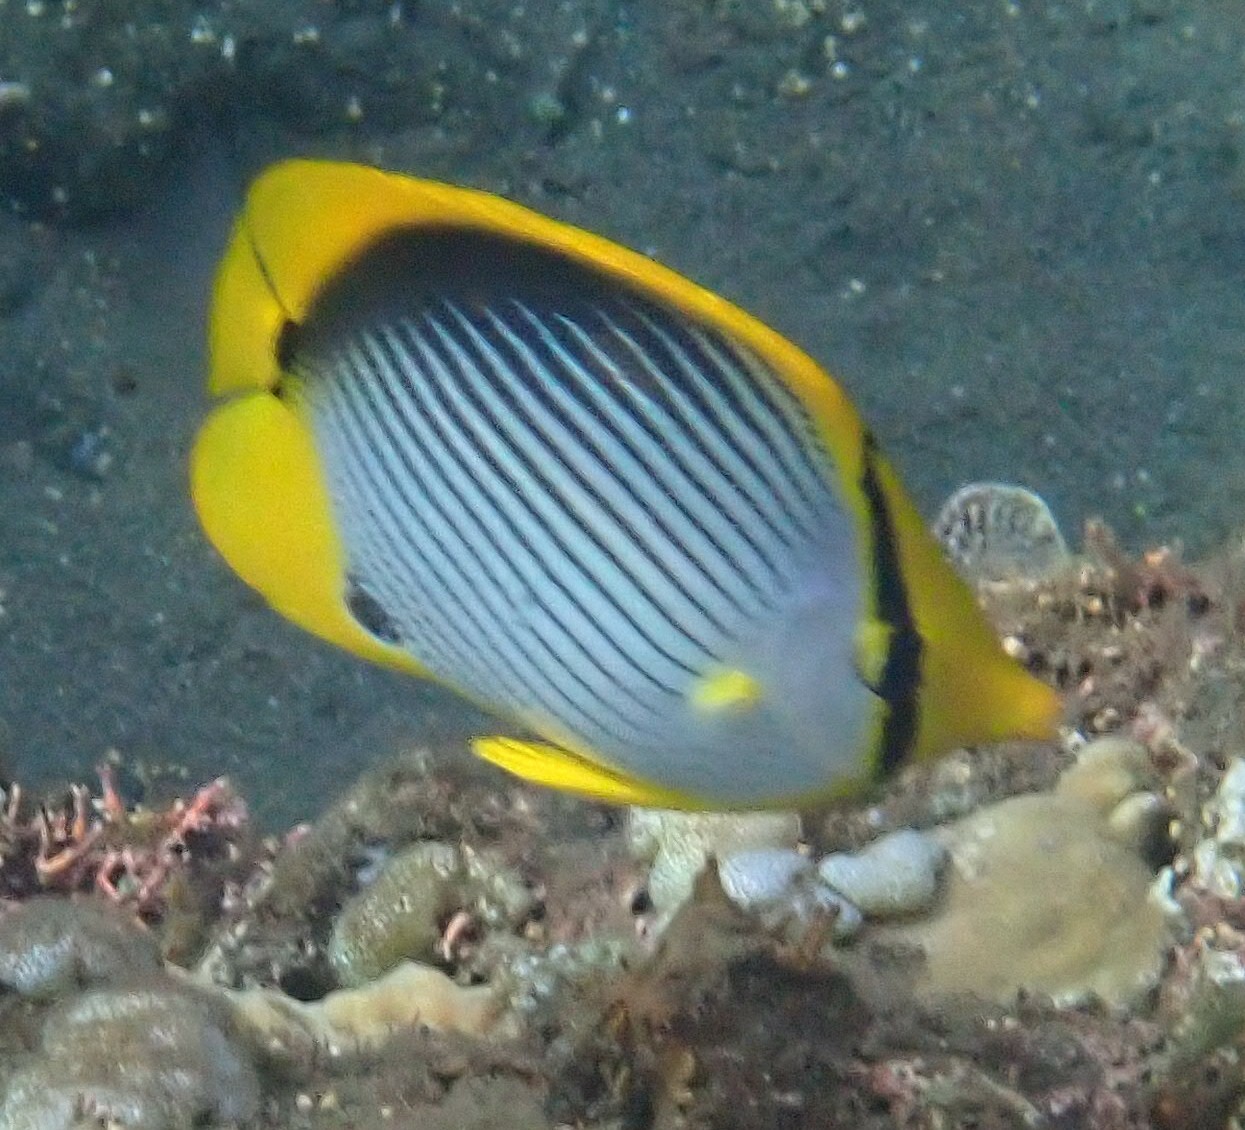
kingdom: Animalia
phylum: Chordata
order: Perciformes
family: Chaetodontidae
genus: Chaetodon
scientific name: Chaetodon melannotus
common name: Blackback butterflyfish
